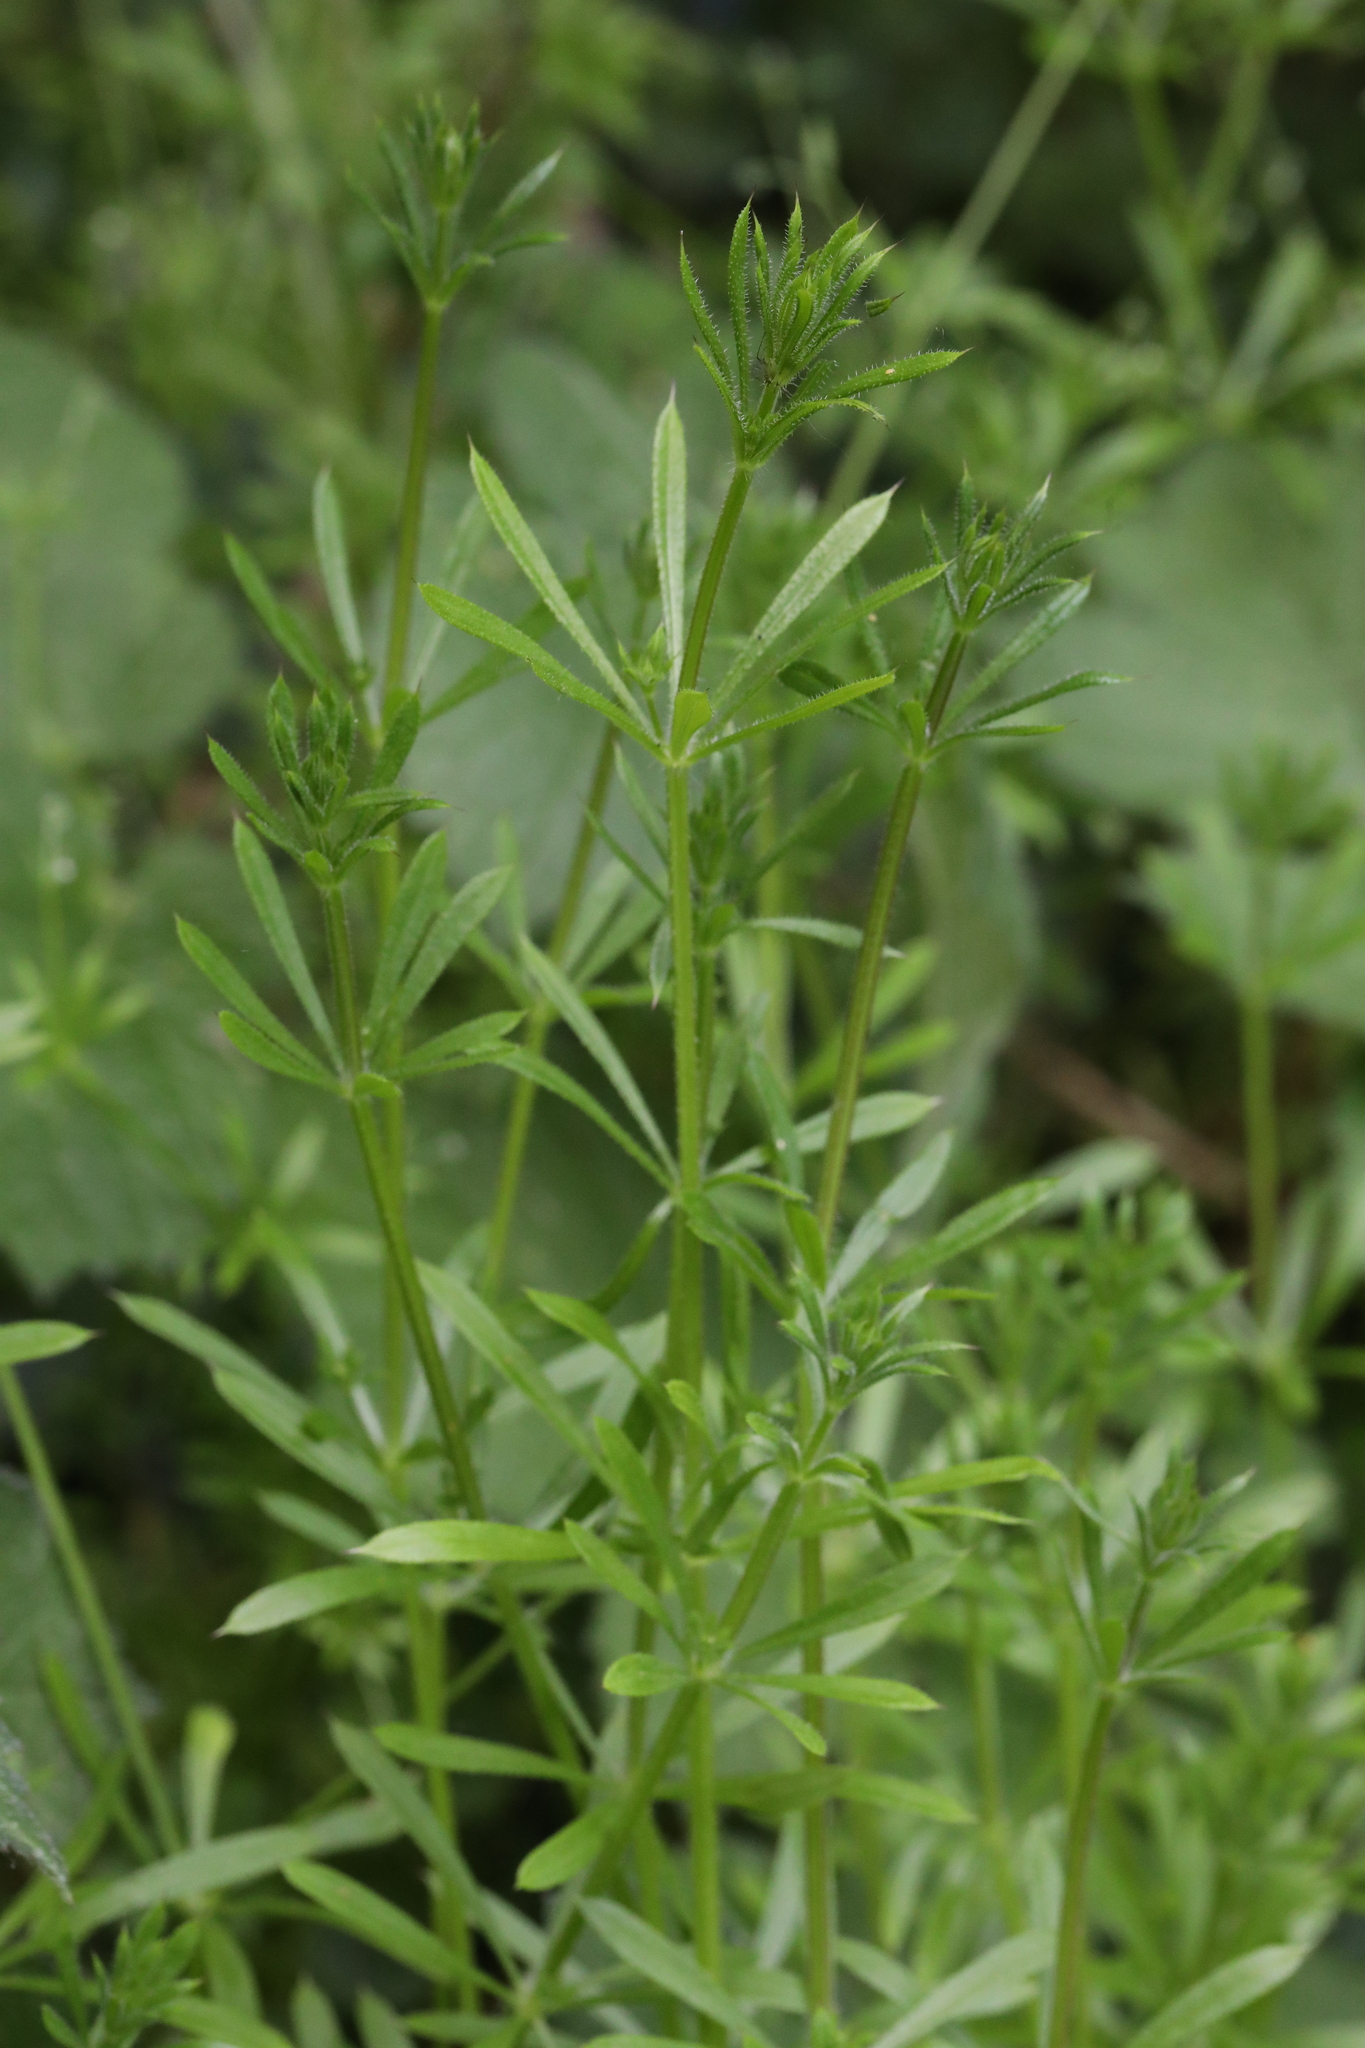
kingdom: Plantae
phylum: Tracheophyta
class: Magnoliopsida
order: Gentianales
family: Rubiaceae
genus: Galium
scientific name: Galium aparine
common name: Cleavers
